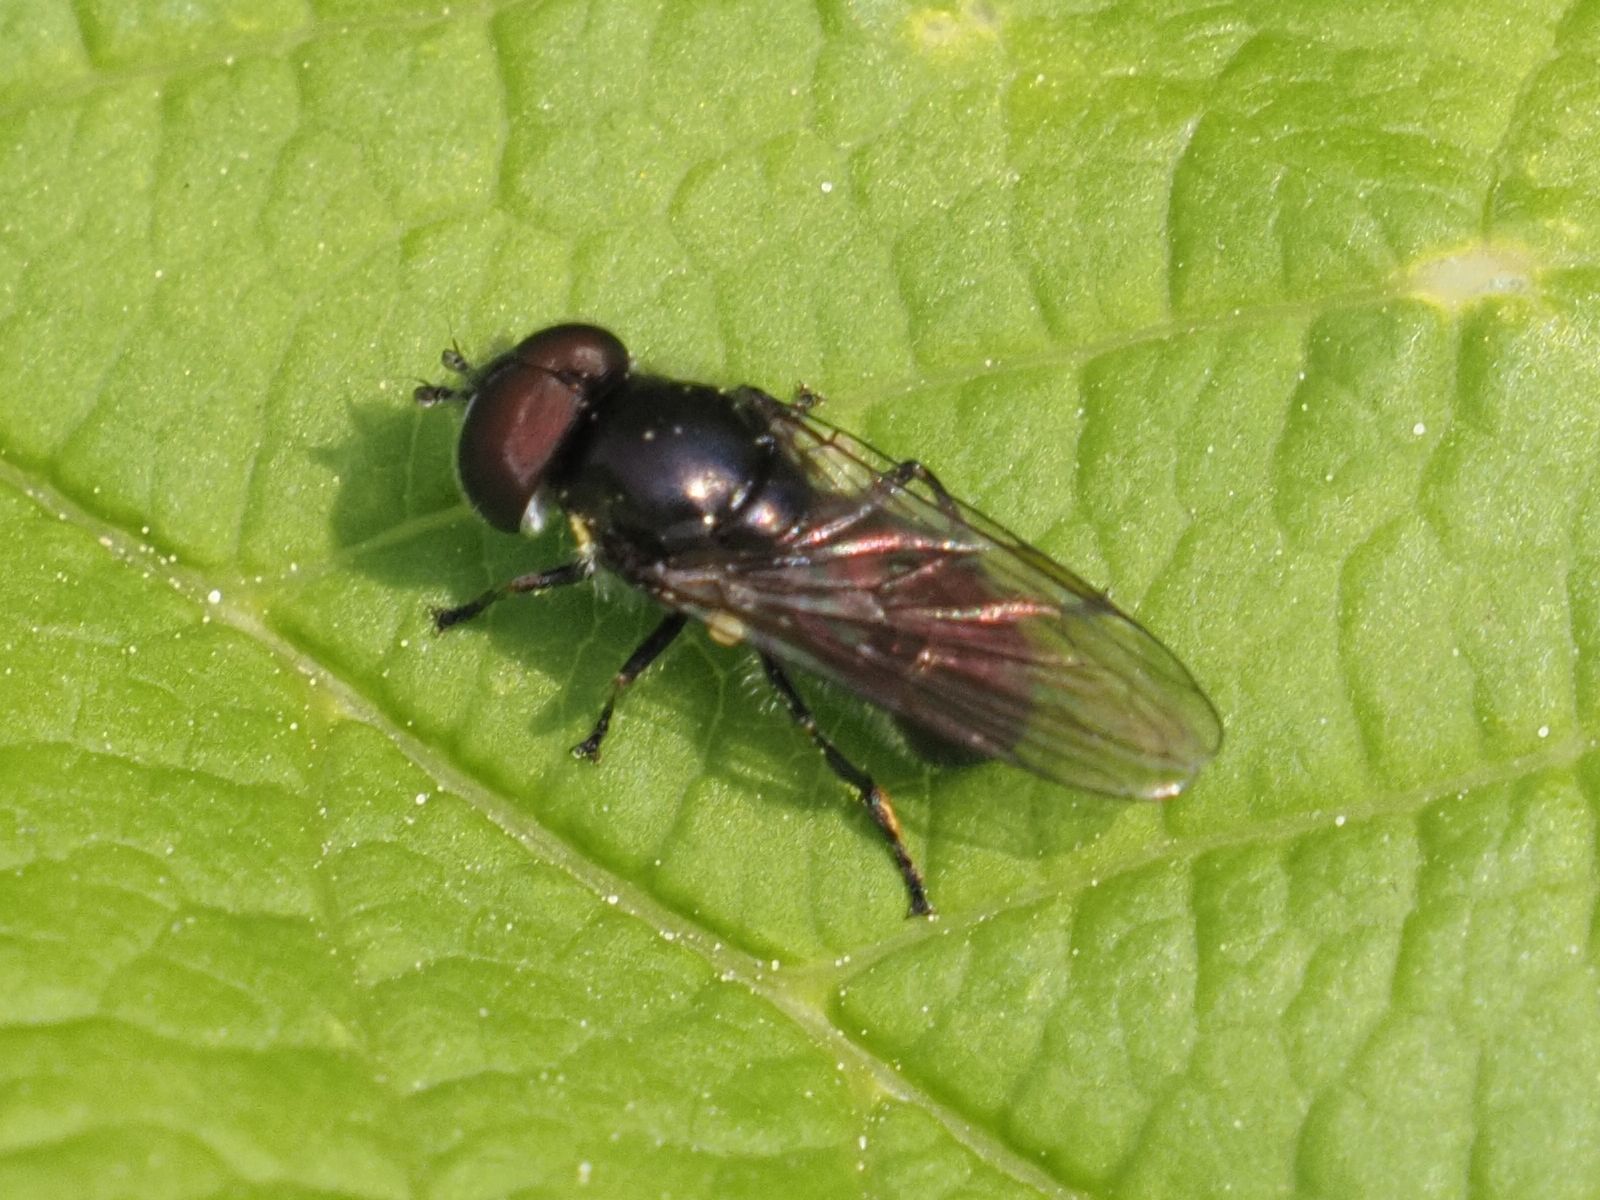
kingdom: Animalia
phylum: Arthropoda
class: Insecta
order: Diptera
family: Syrphidae
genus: Triglyphus
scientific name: Triglyphus primus
